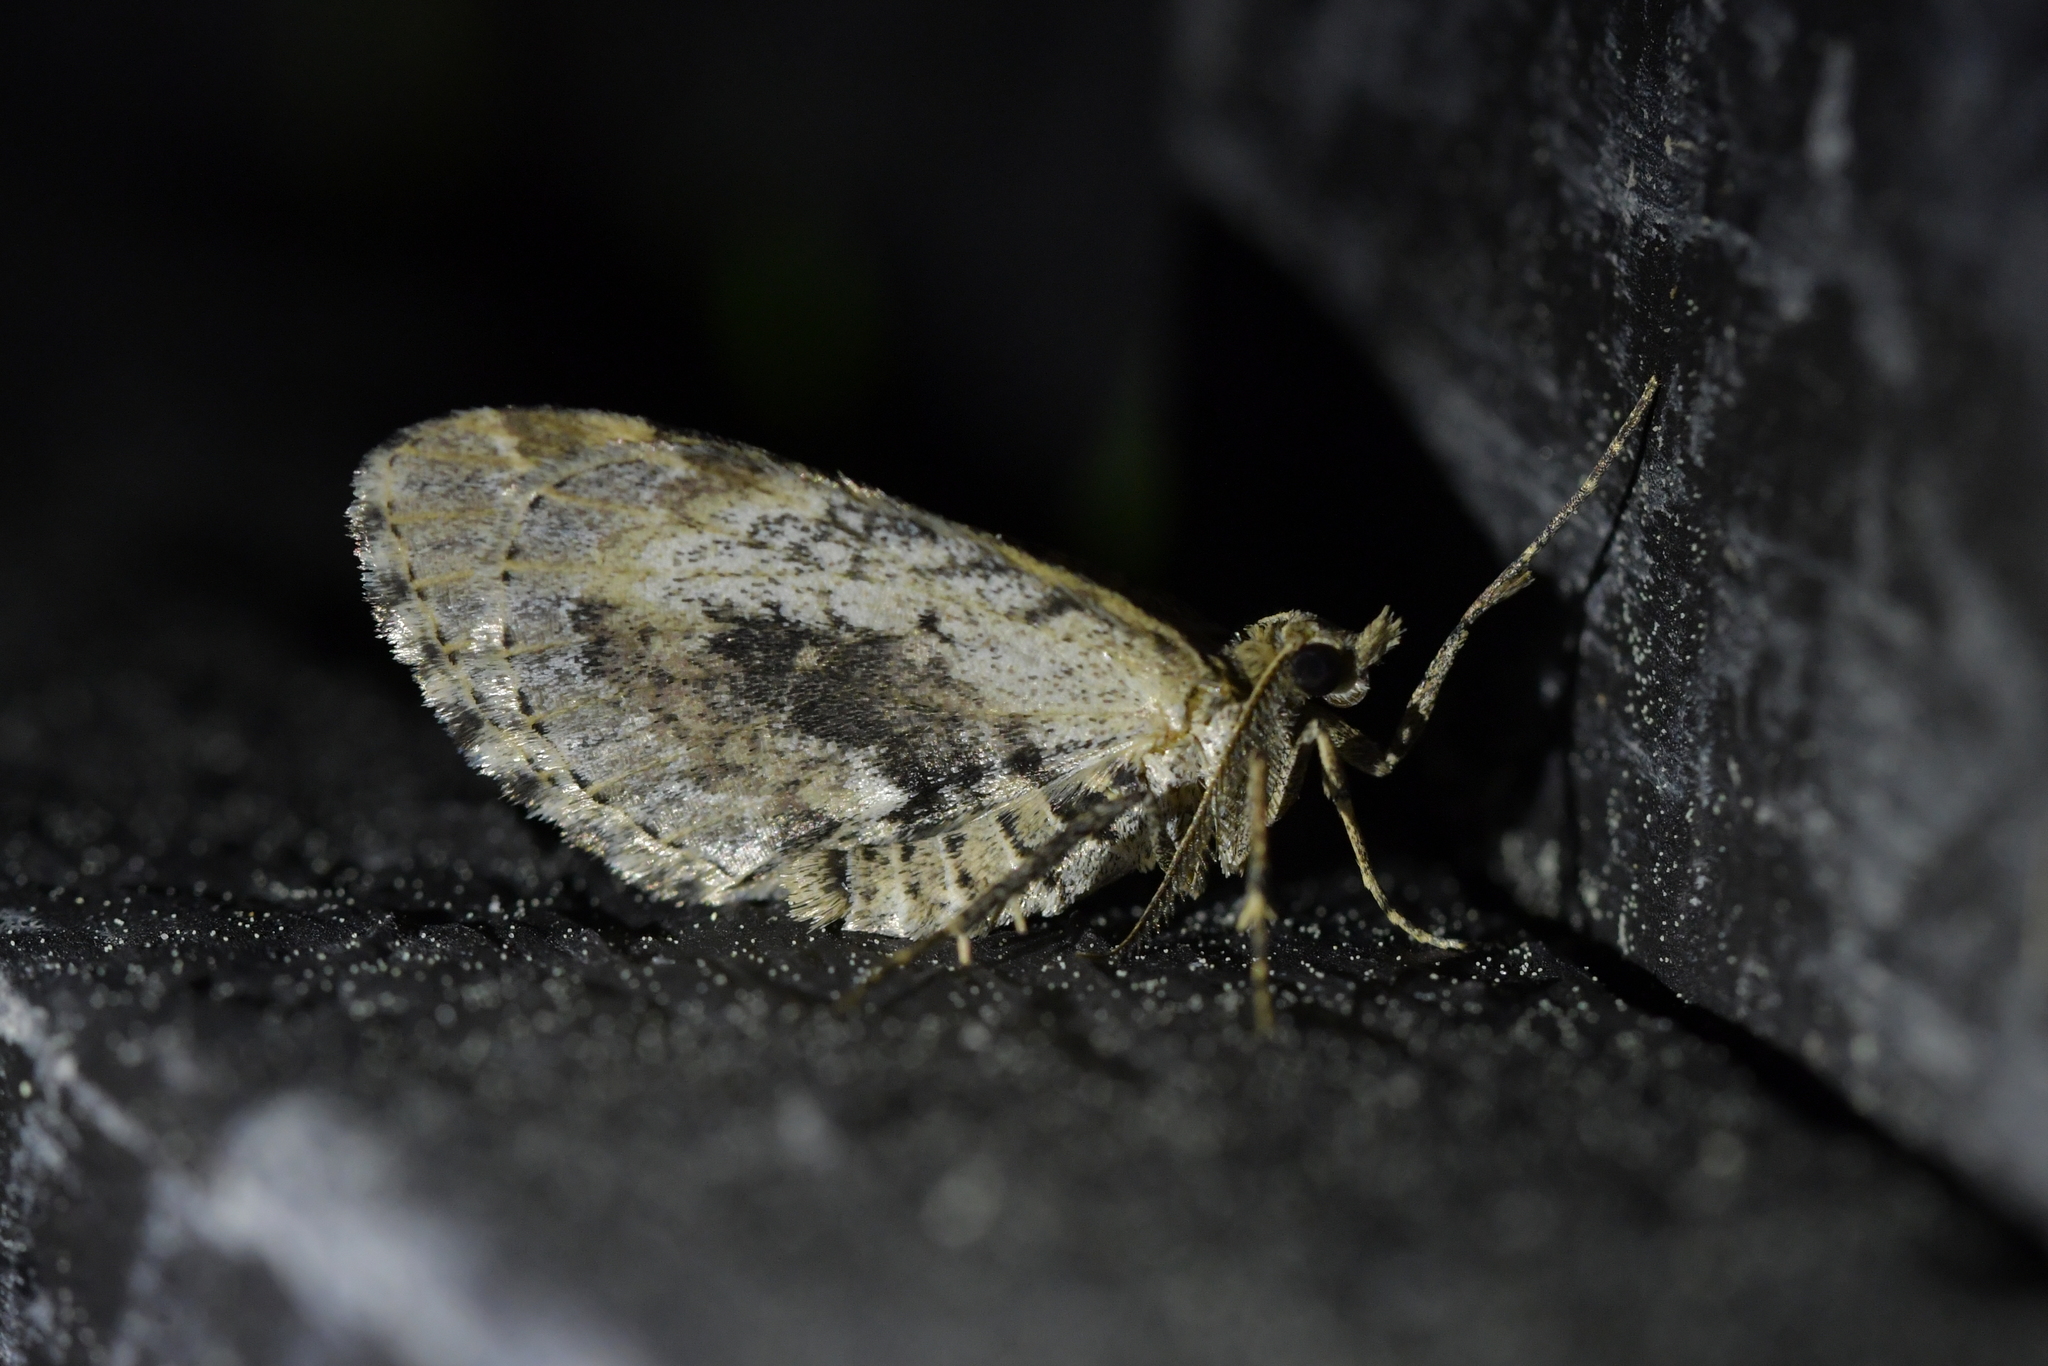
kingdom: Animalia
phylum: Arthropoda
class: Insecta
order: Lepidoptera
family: Geometridae
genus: Asaphodes
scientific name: Asaphodes aegrota
